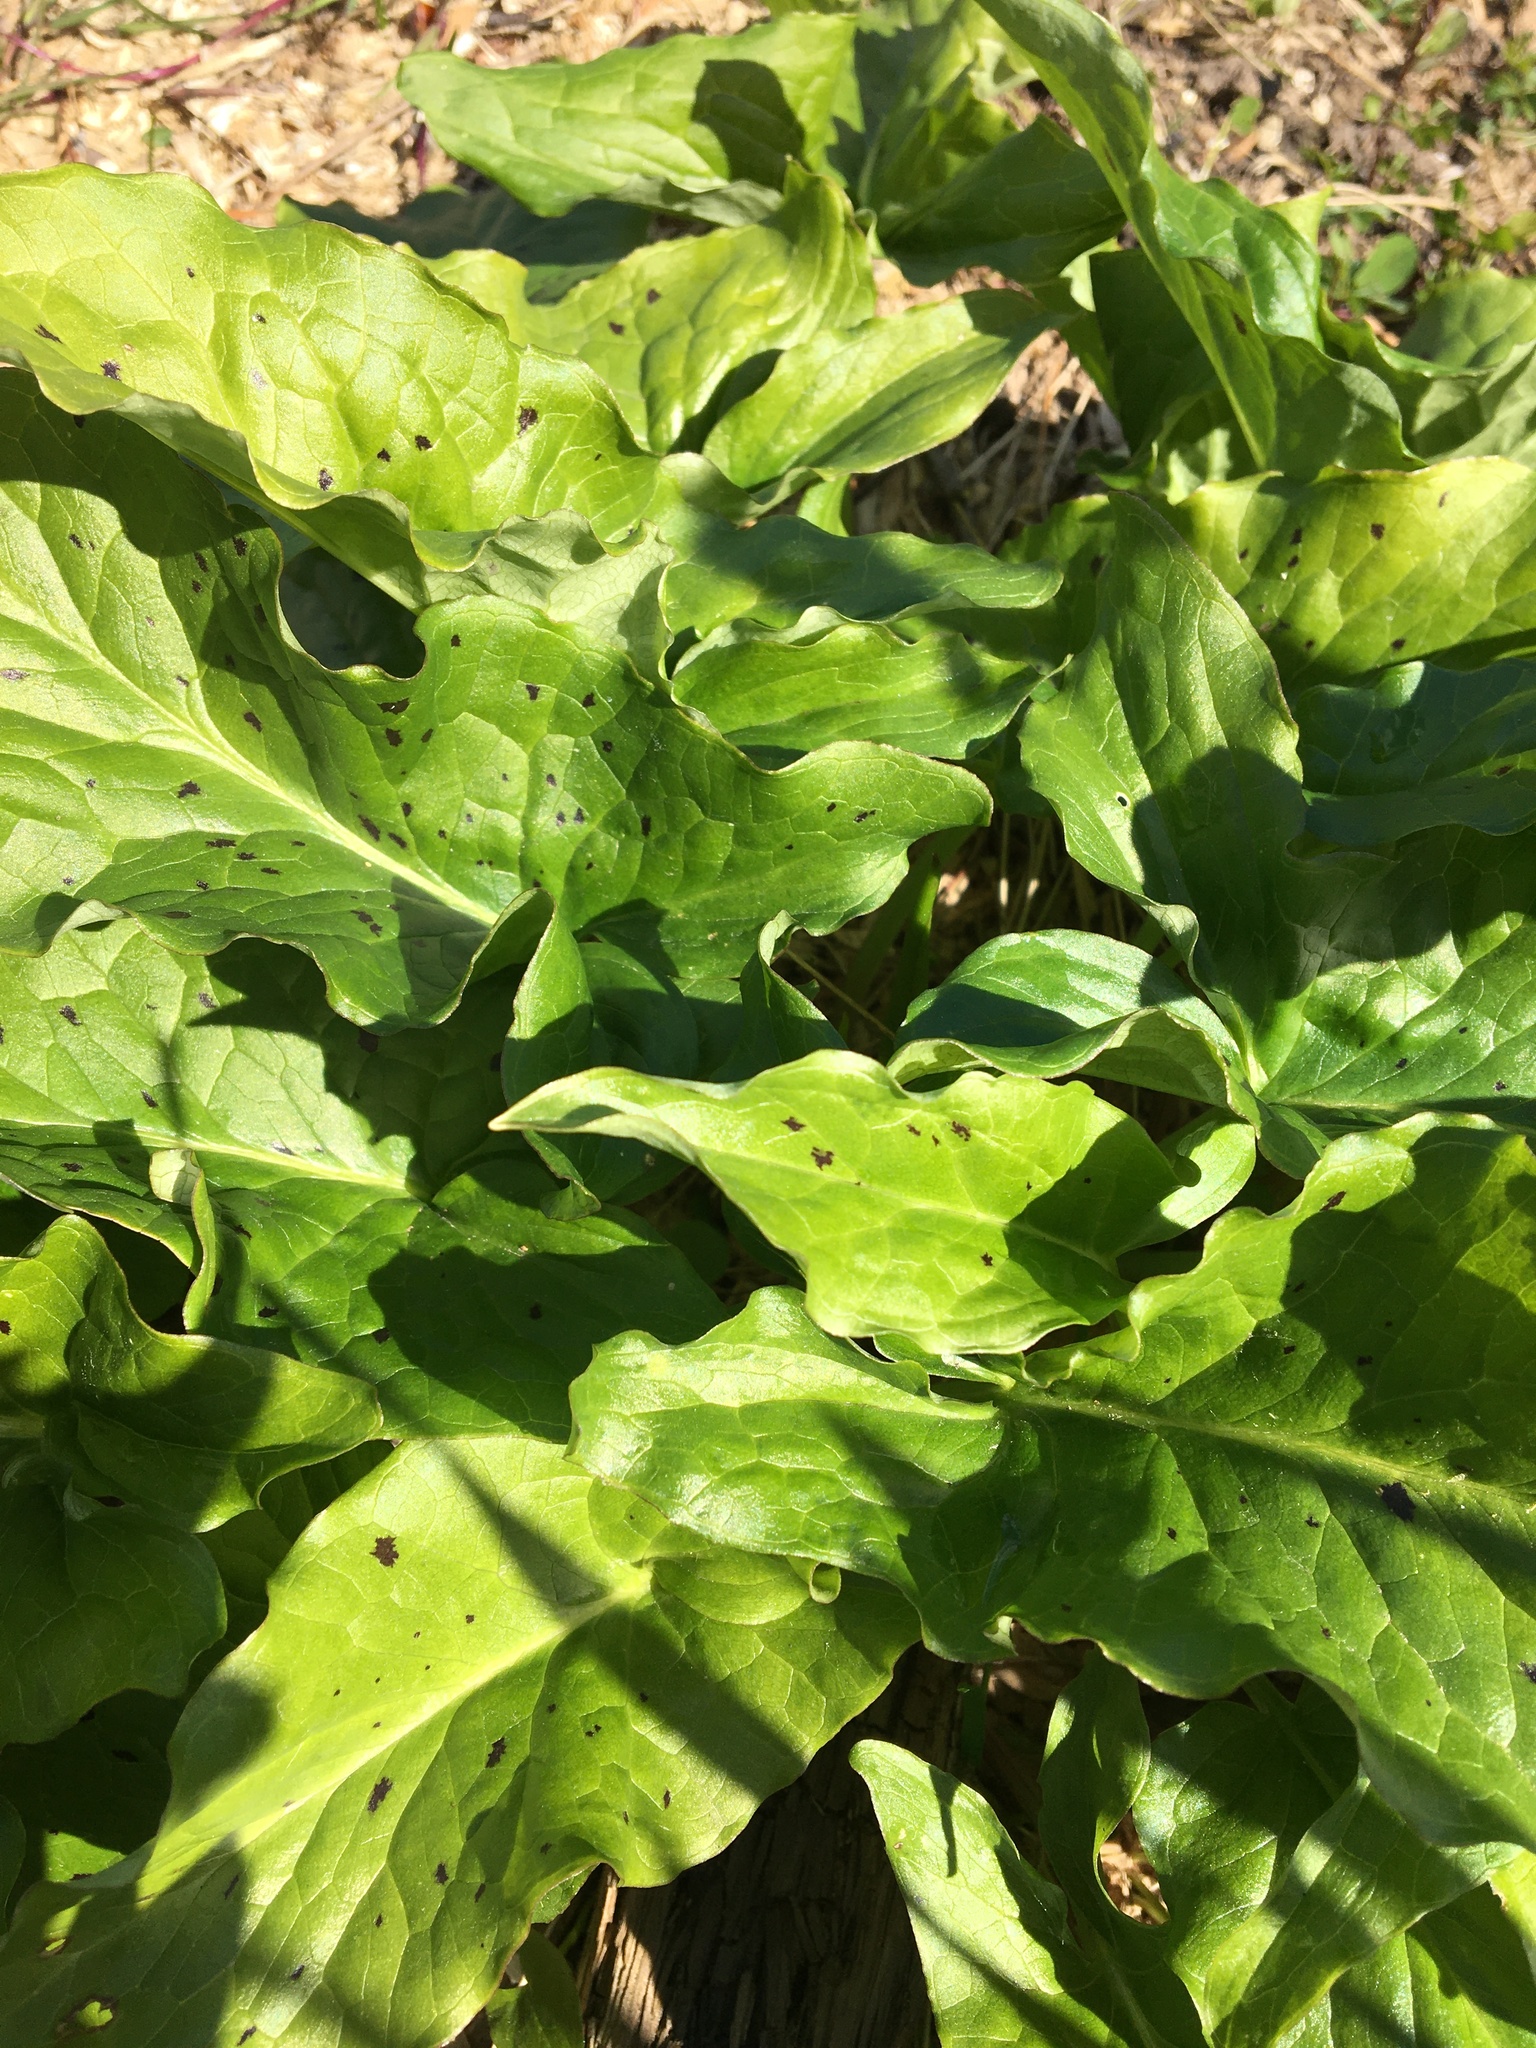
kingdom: Plantae
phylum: Tracheophyta
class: Liliopsida
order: Alismatales
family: Araceae
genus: Arum
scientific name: Arum maculatum
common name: Lords-and-ladies
